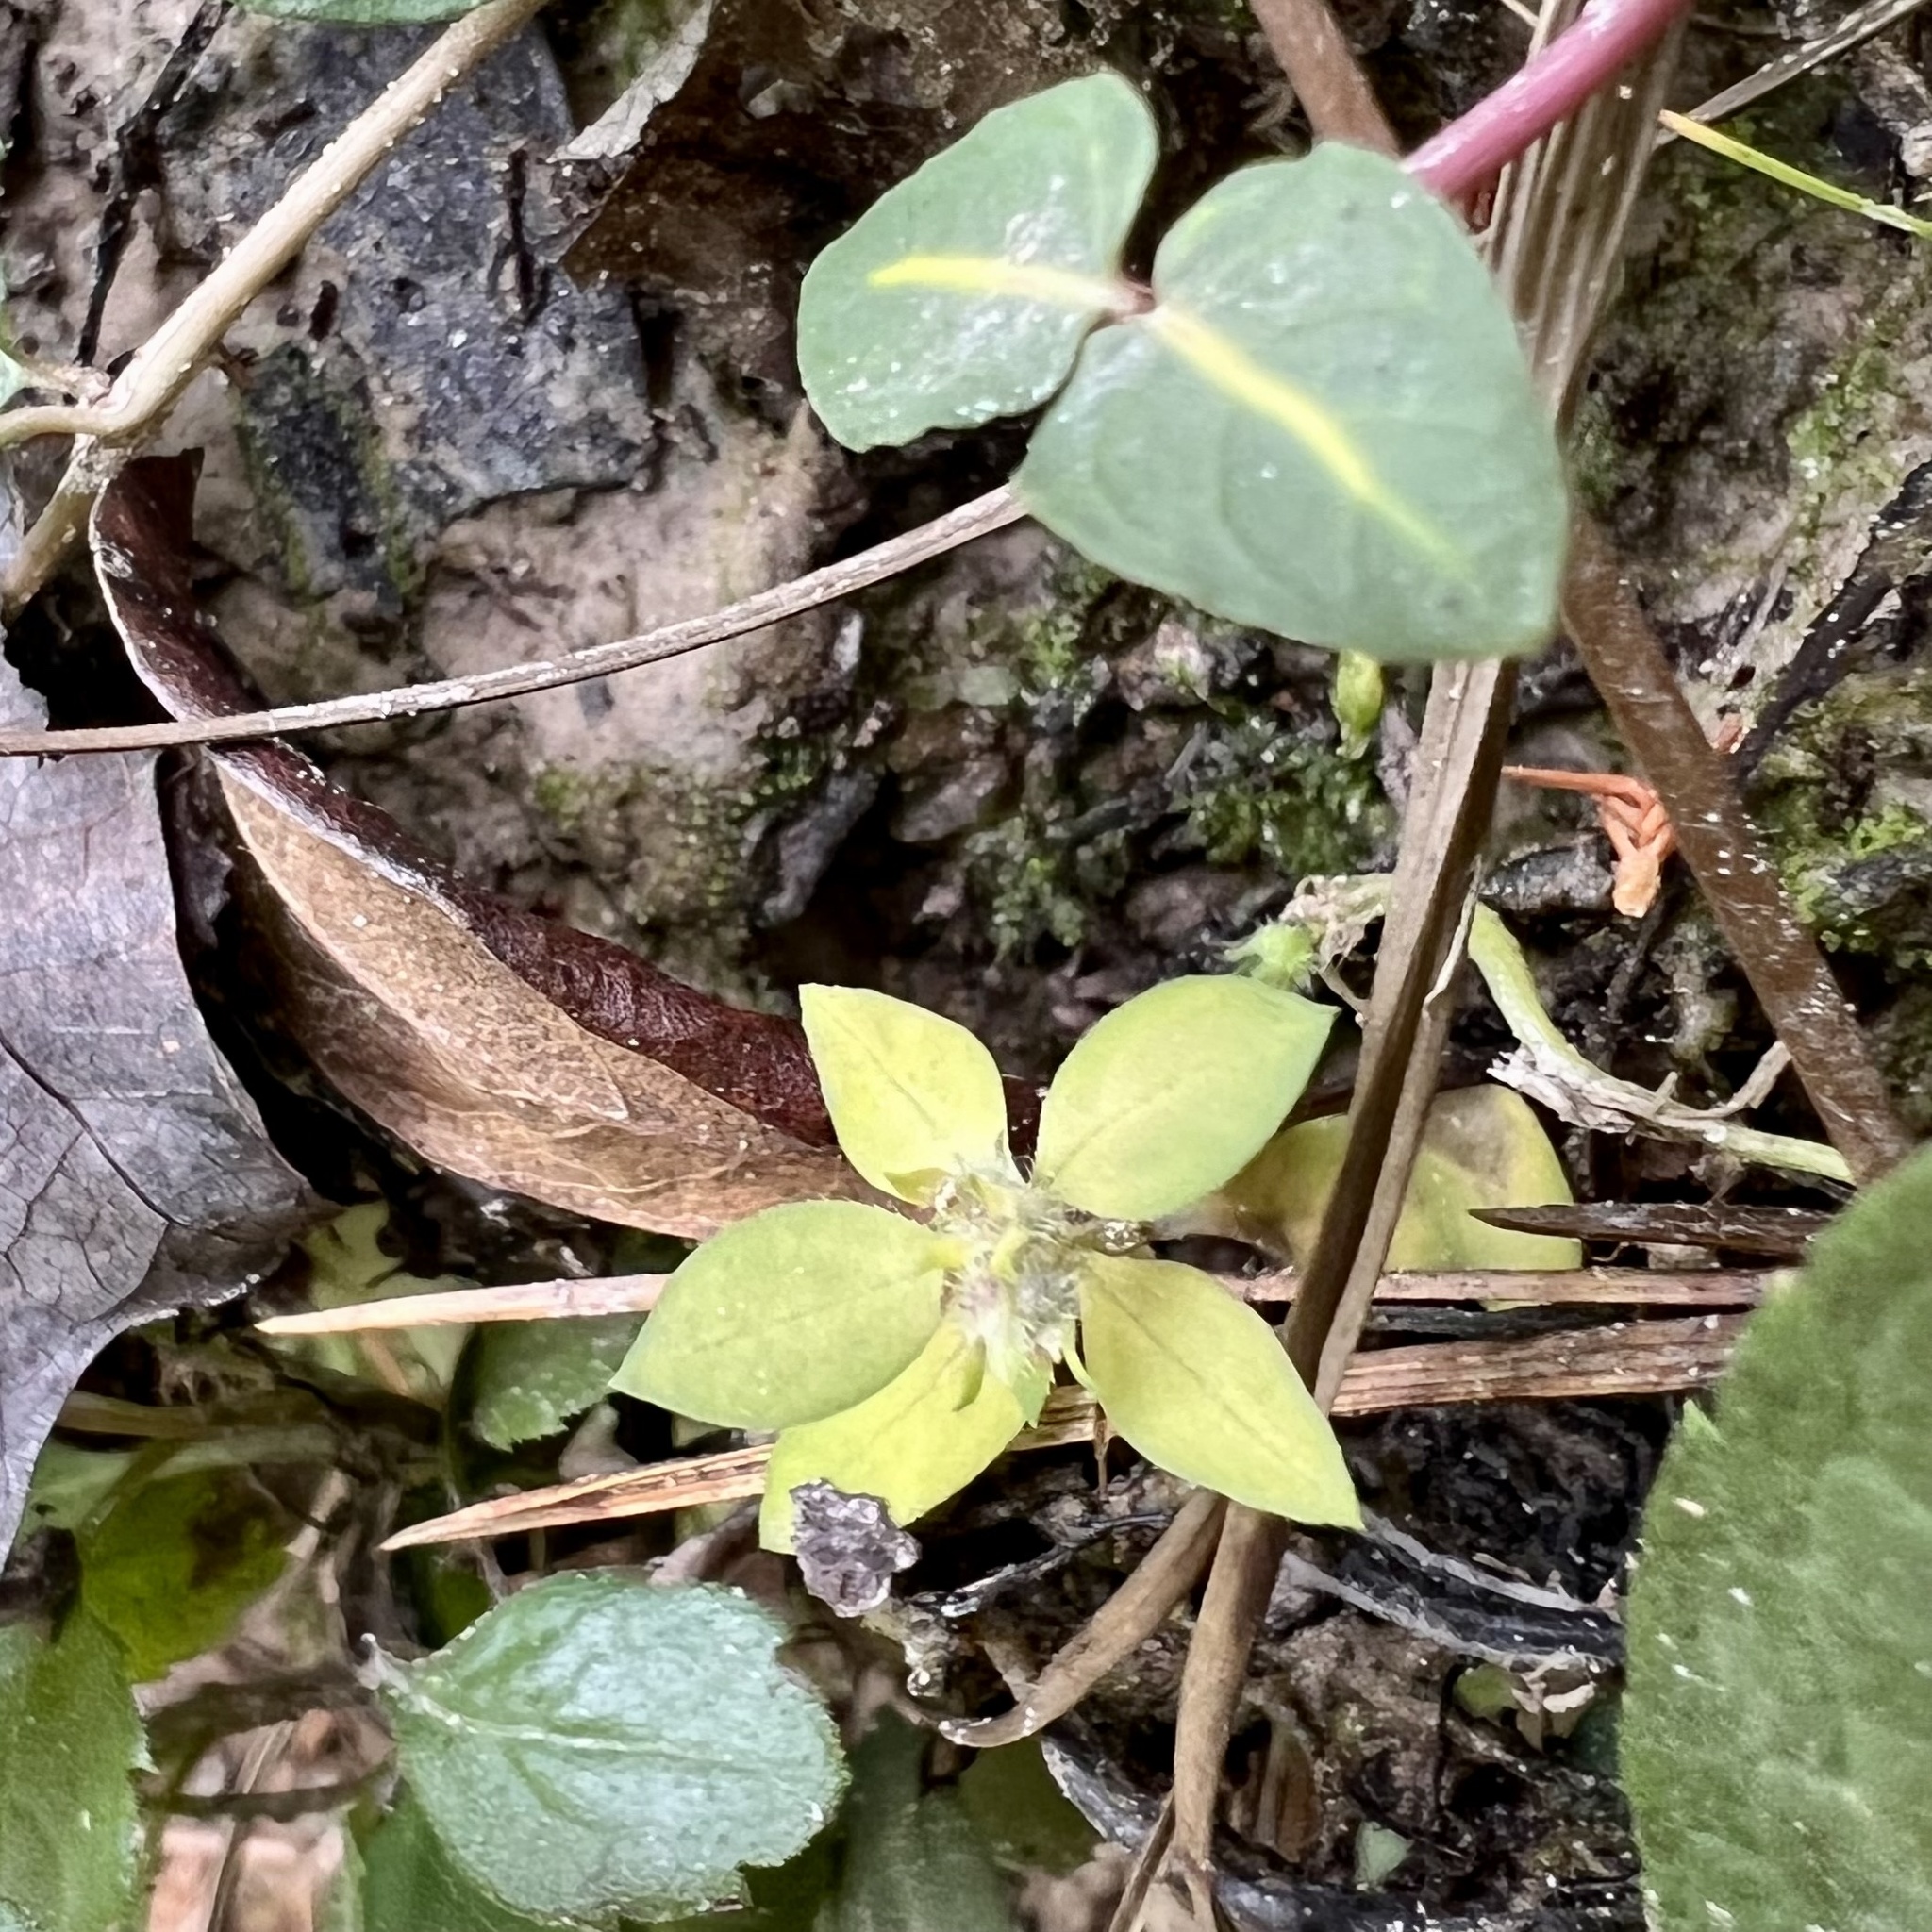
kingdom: Plantae
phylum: Tracheophyta
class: Magnoliopsida
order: Gentianales
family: Rubiaceae
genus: Edrastima
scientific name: Edrastima uniflora
